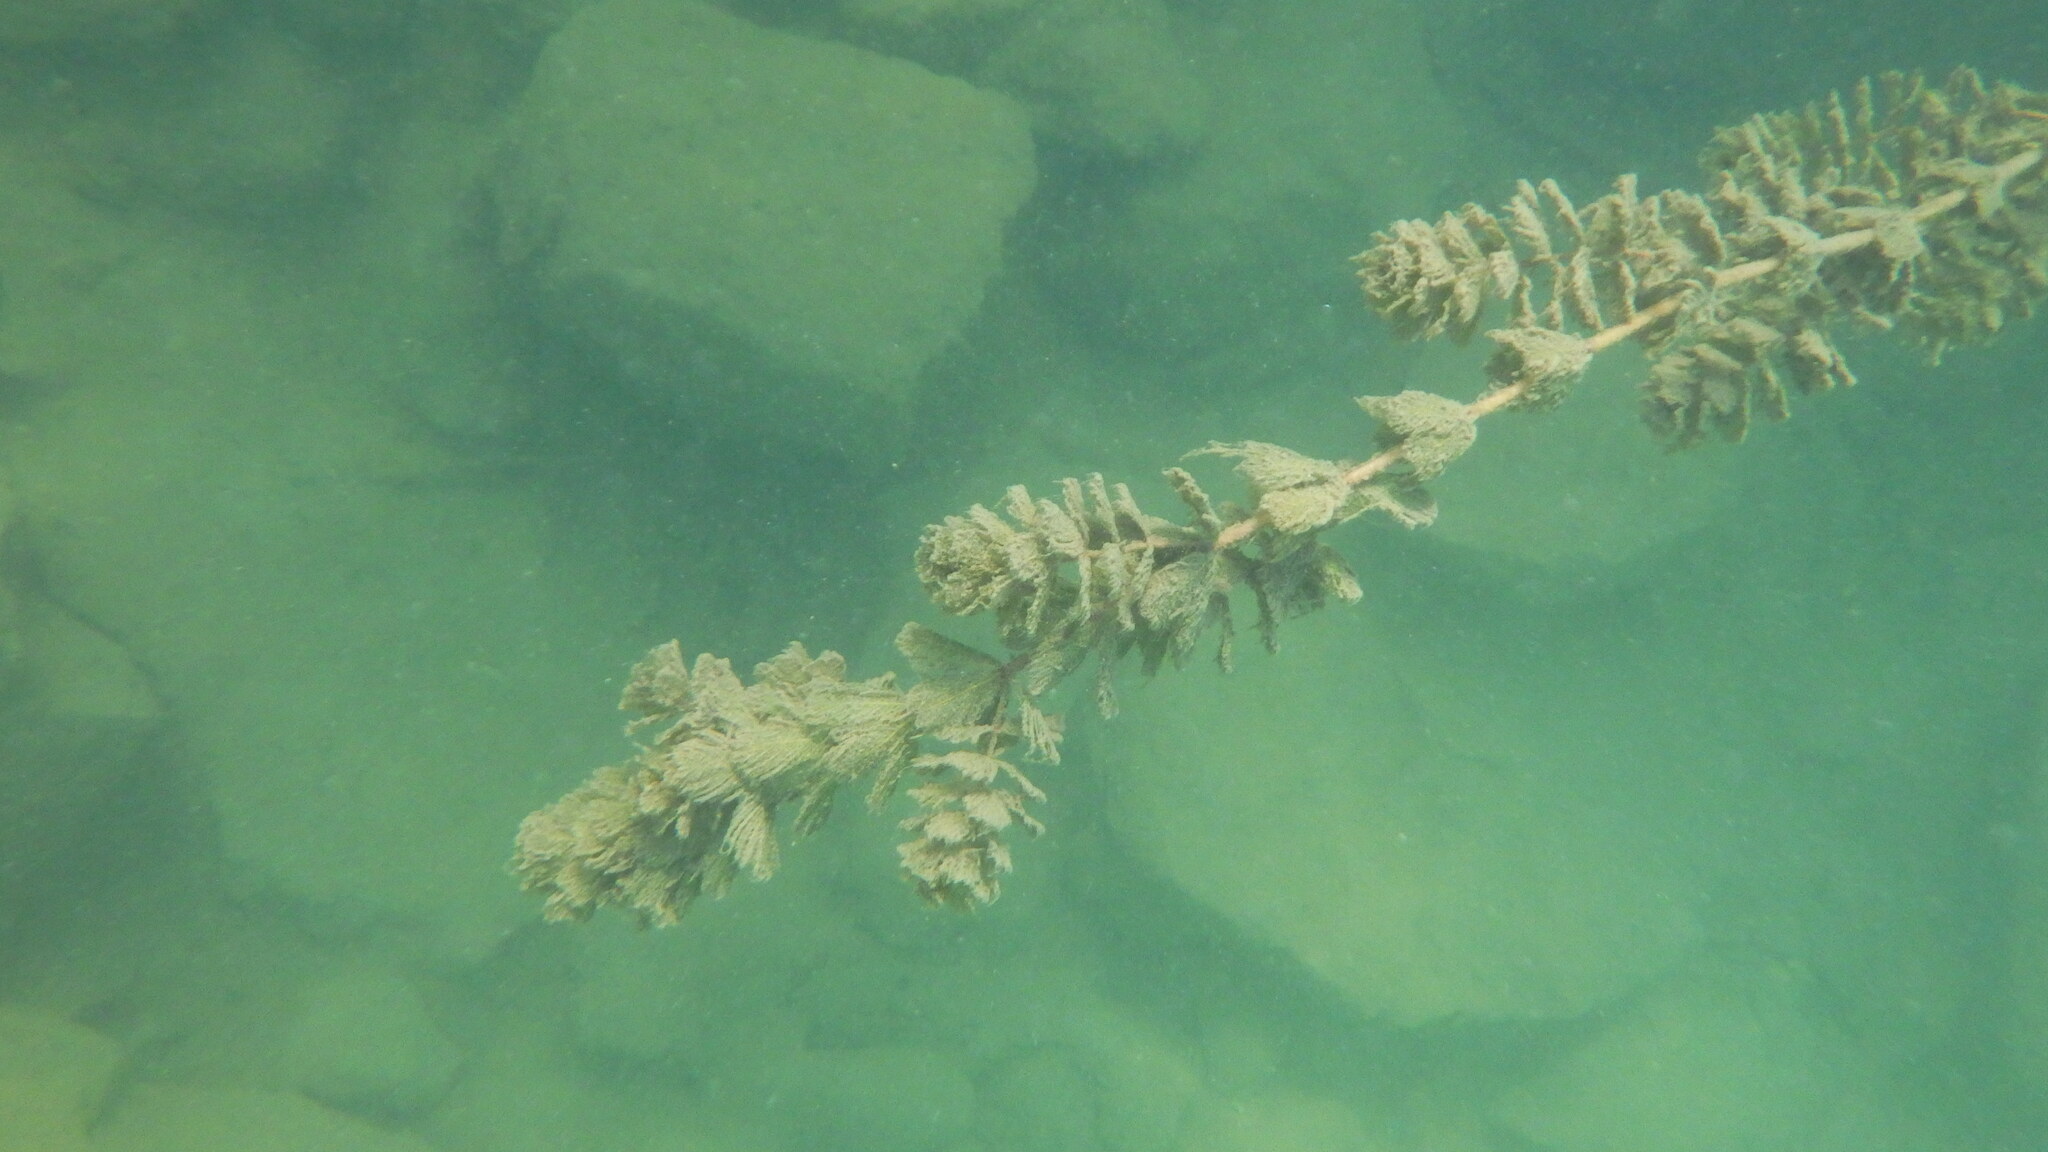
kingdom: Plantae
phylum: Tracheophyta
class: Magnoliopsida
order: Saxifragales
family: Haloragaceae
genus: Myriophyllum
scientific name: Myriophyllum spicatum
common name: Spiked water-milfoil
